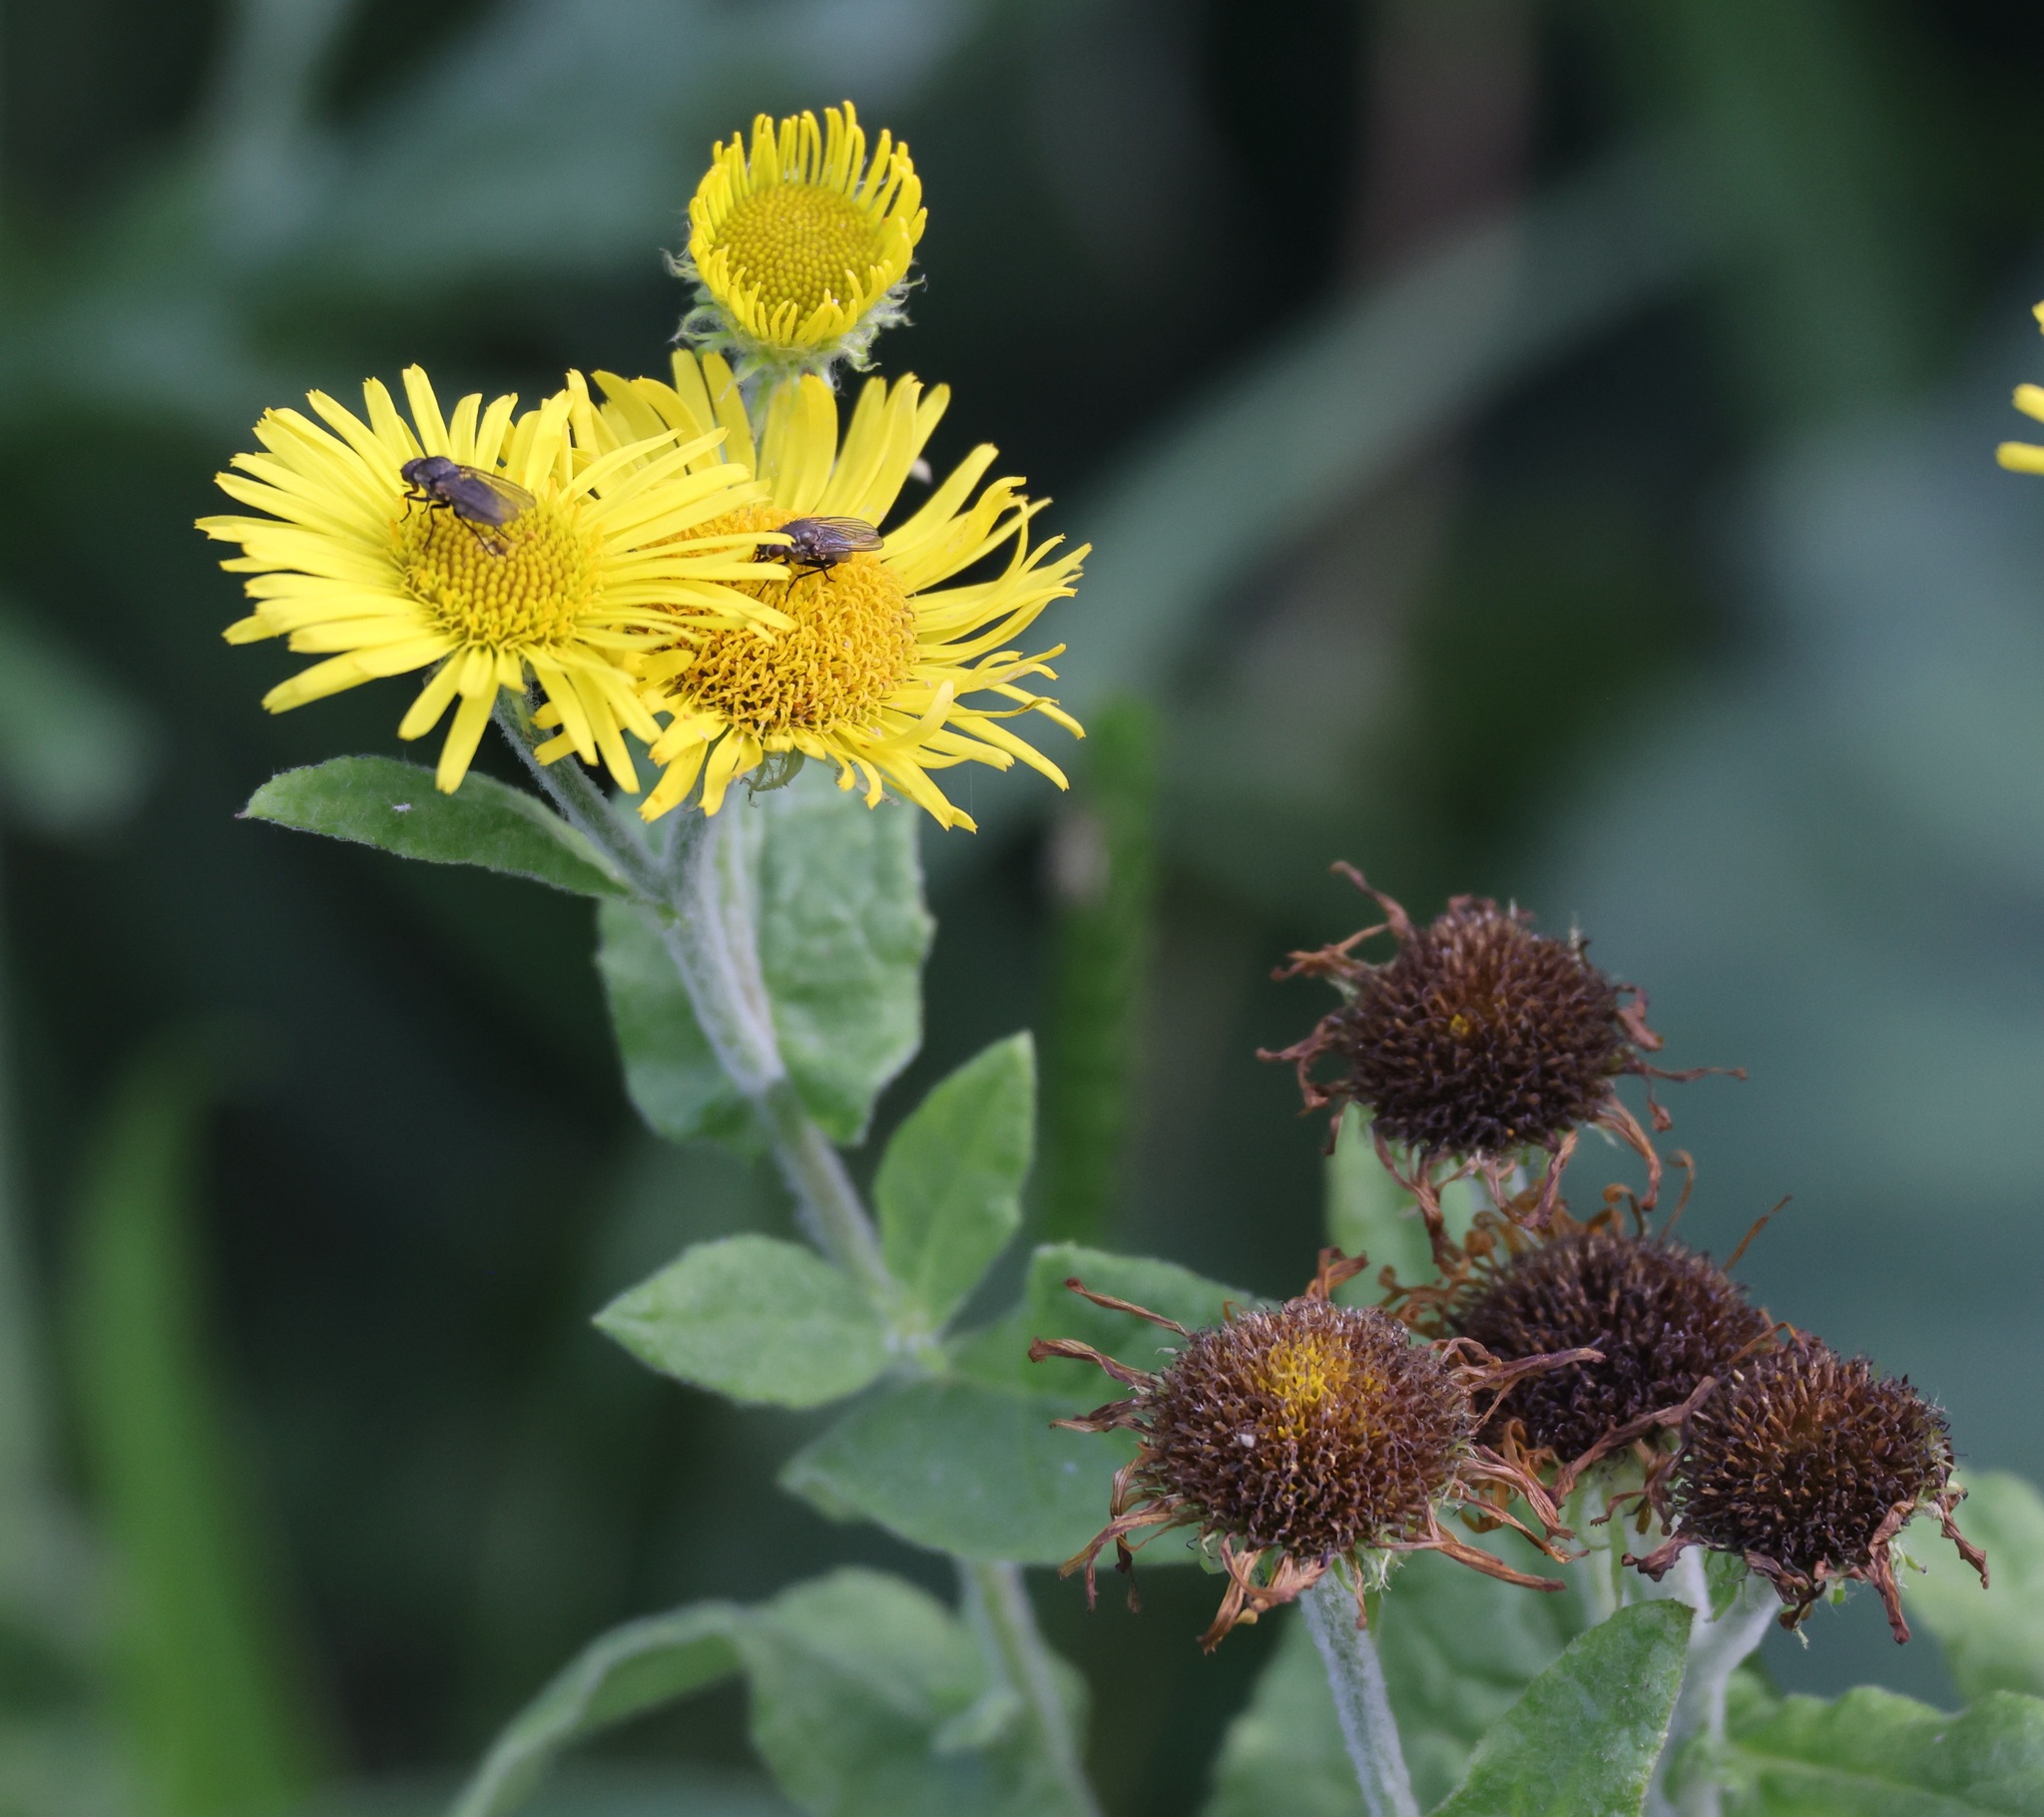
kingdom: Plantae
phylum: Tracheophyta
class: Magnoliopsida
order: Asterales
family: Asteraceae
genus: Pulicaria
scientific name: Pulicaria dysenterica
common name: Common fleabane
